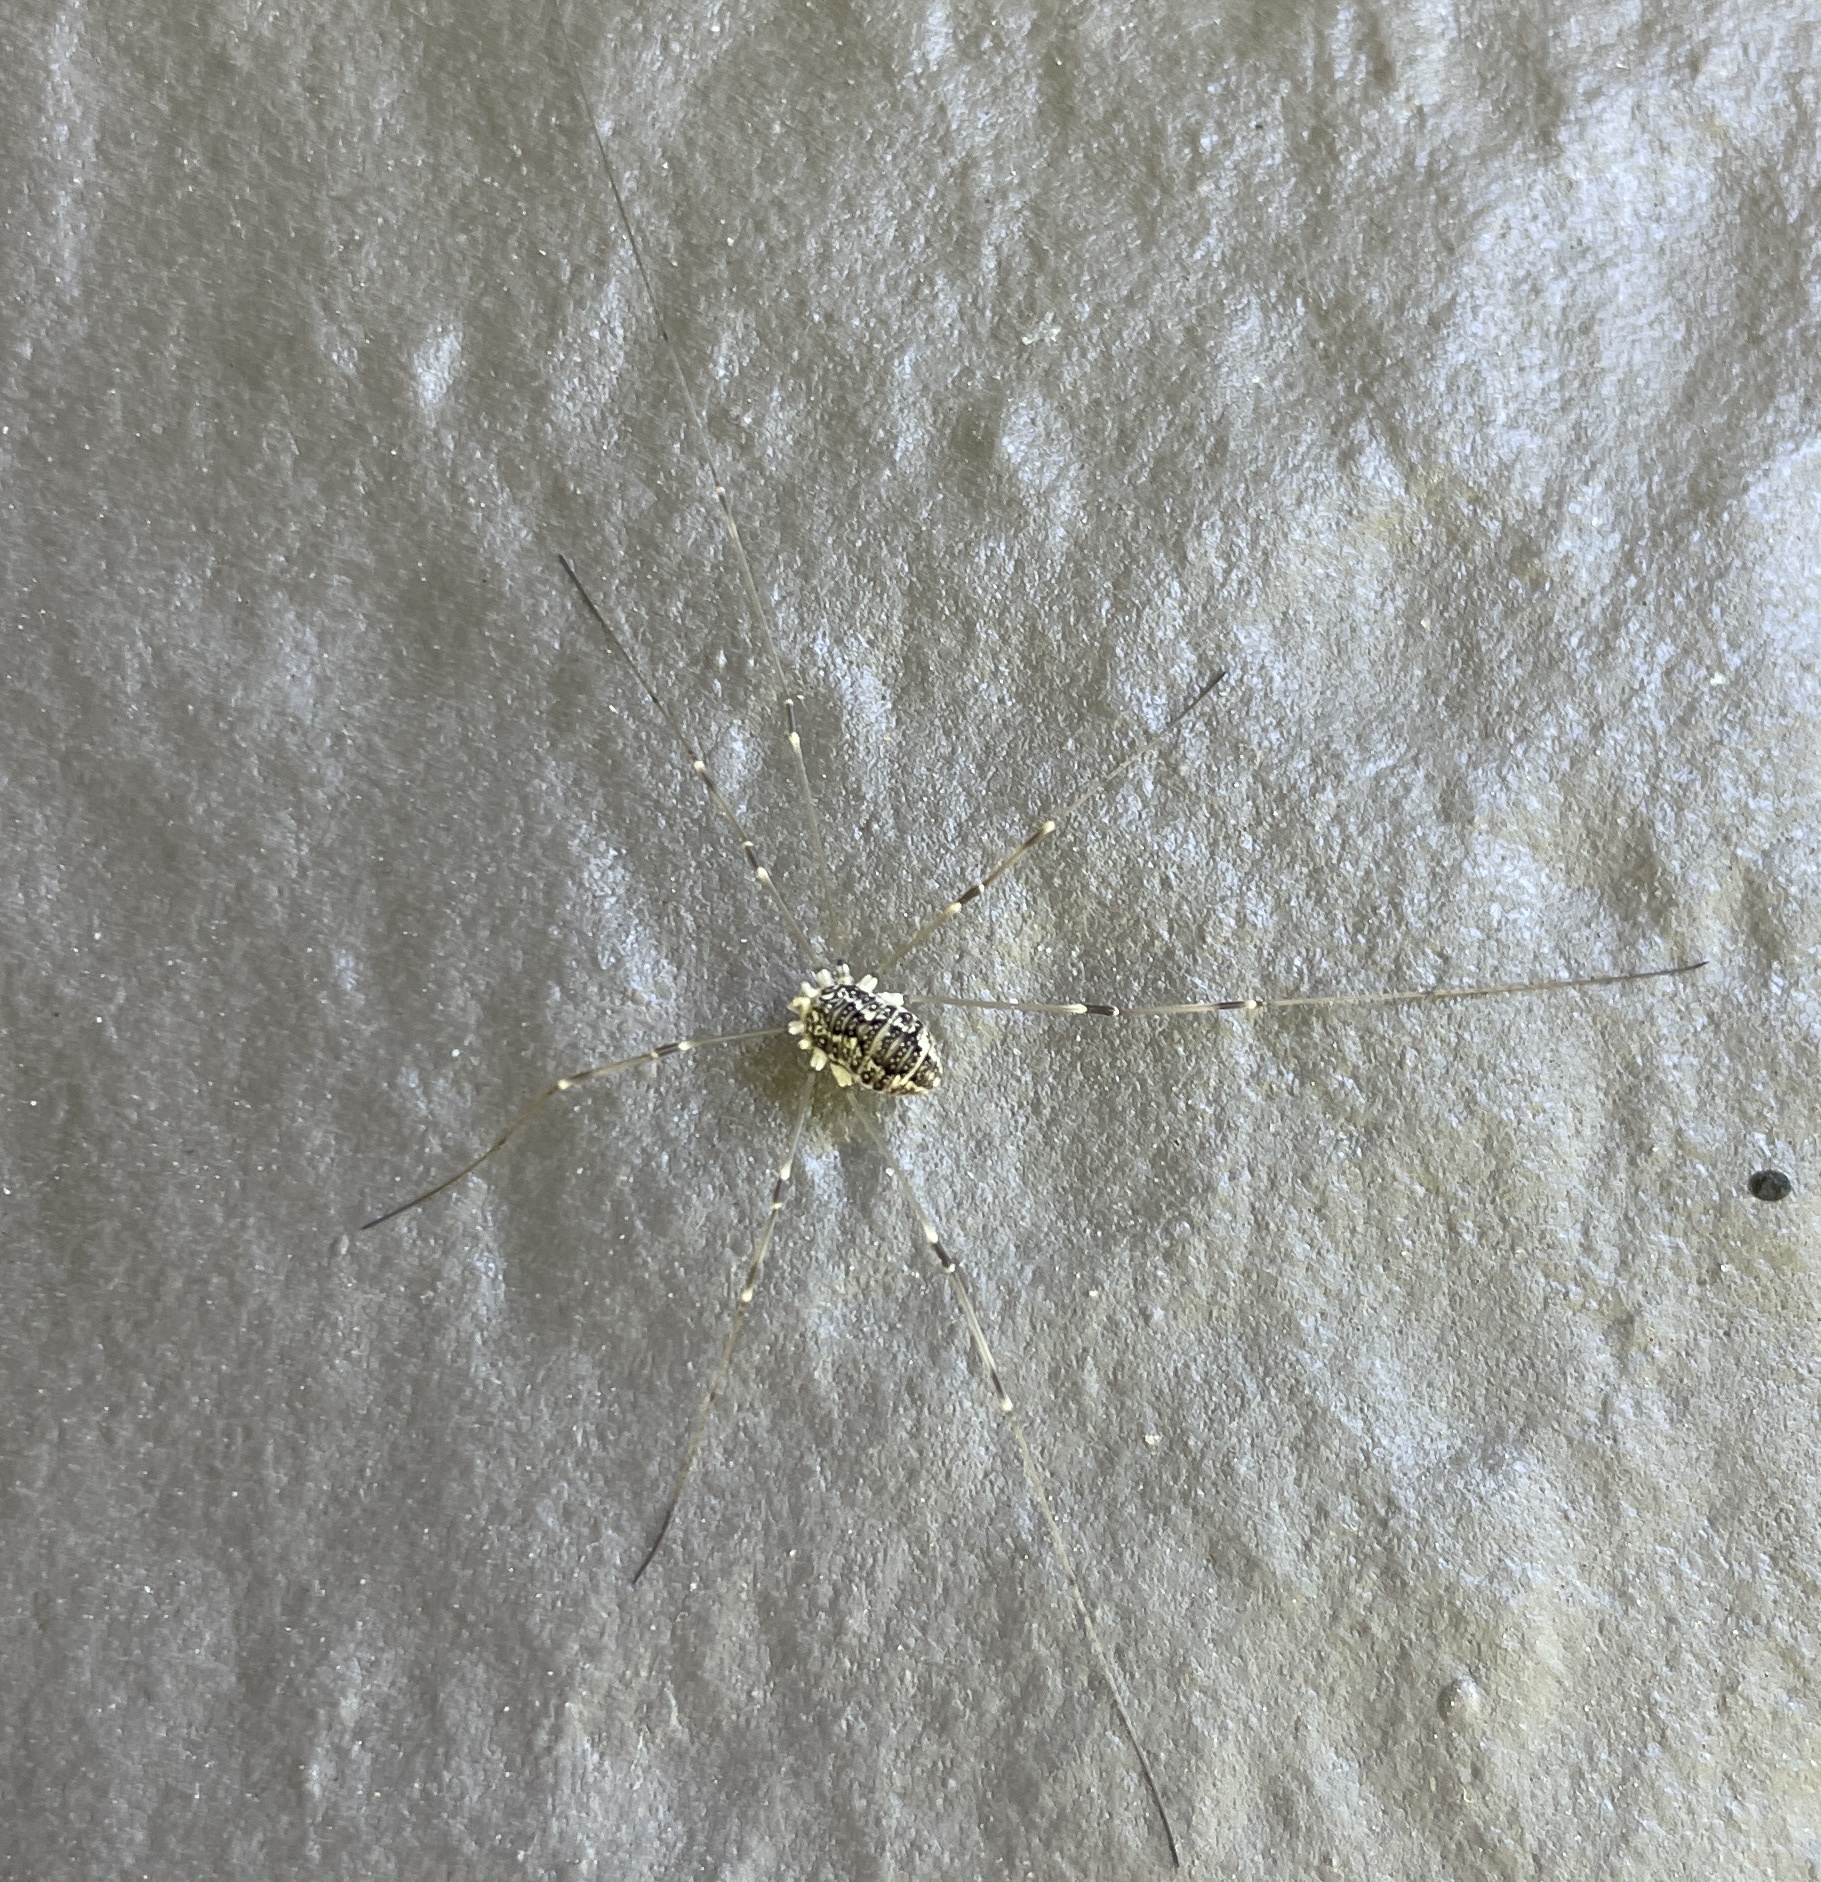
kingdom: Animalia
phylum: Arthropoda
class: Arachnida
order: Opiliones
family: Sclerosomatidae
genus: Leiobunum
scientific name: Leiobunum vittatum
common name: Eastern harvestman
